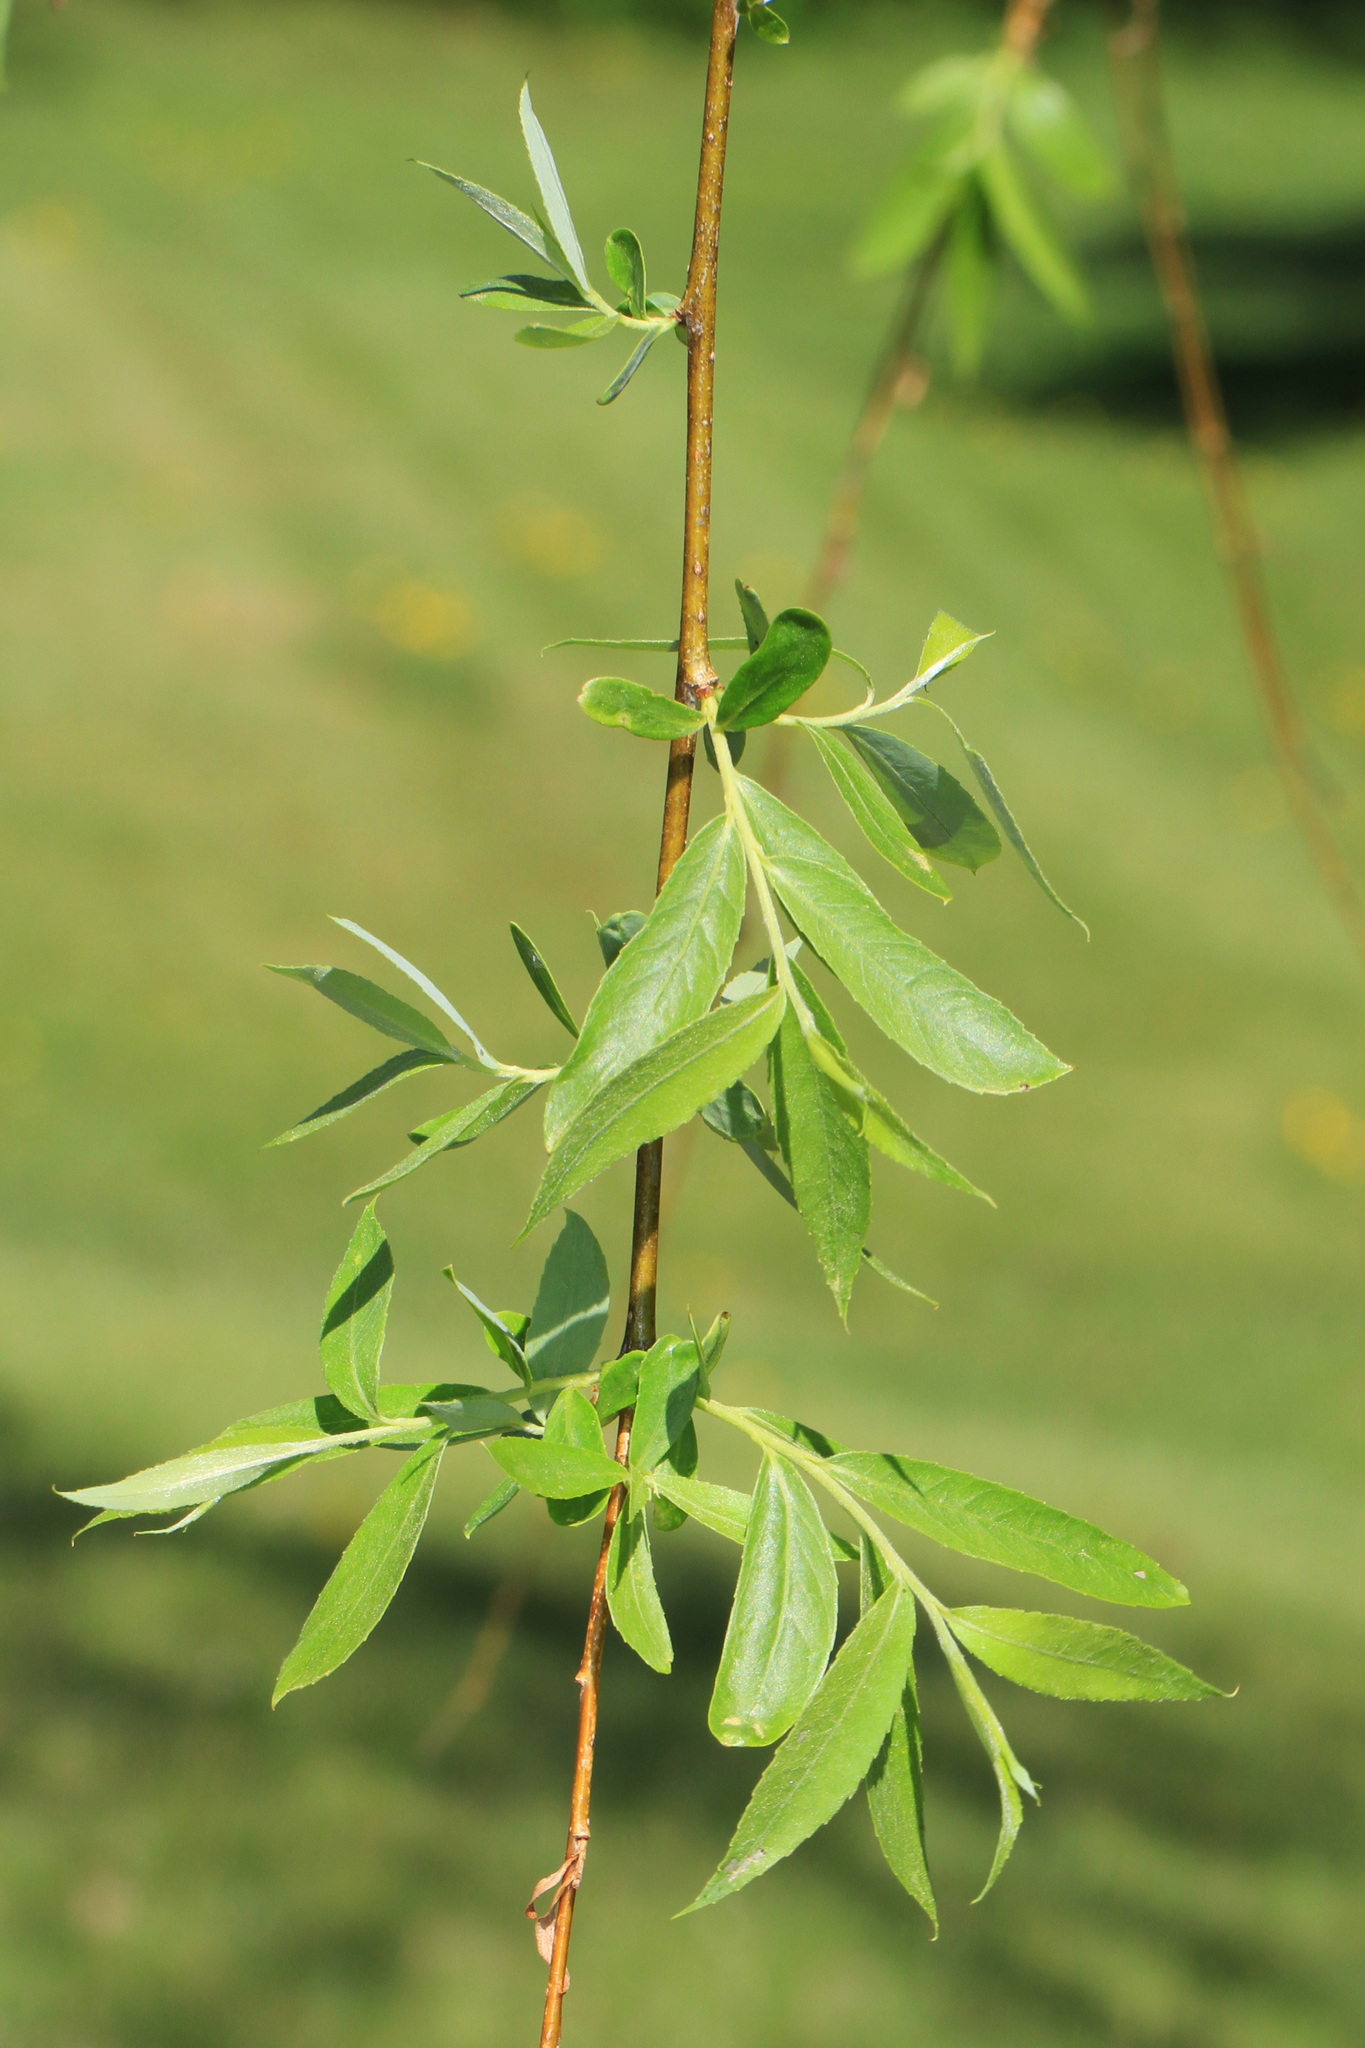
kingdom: Plantae
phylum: Tracheophyta
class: Magnoliopsida
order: Malpighiales
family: Salicaceae
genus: Salix
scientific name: Salix babylonica
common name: Weeping willow
